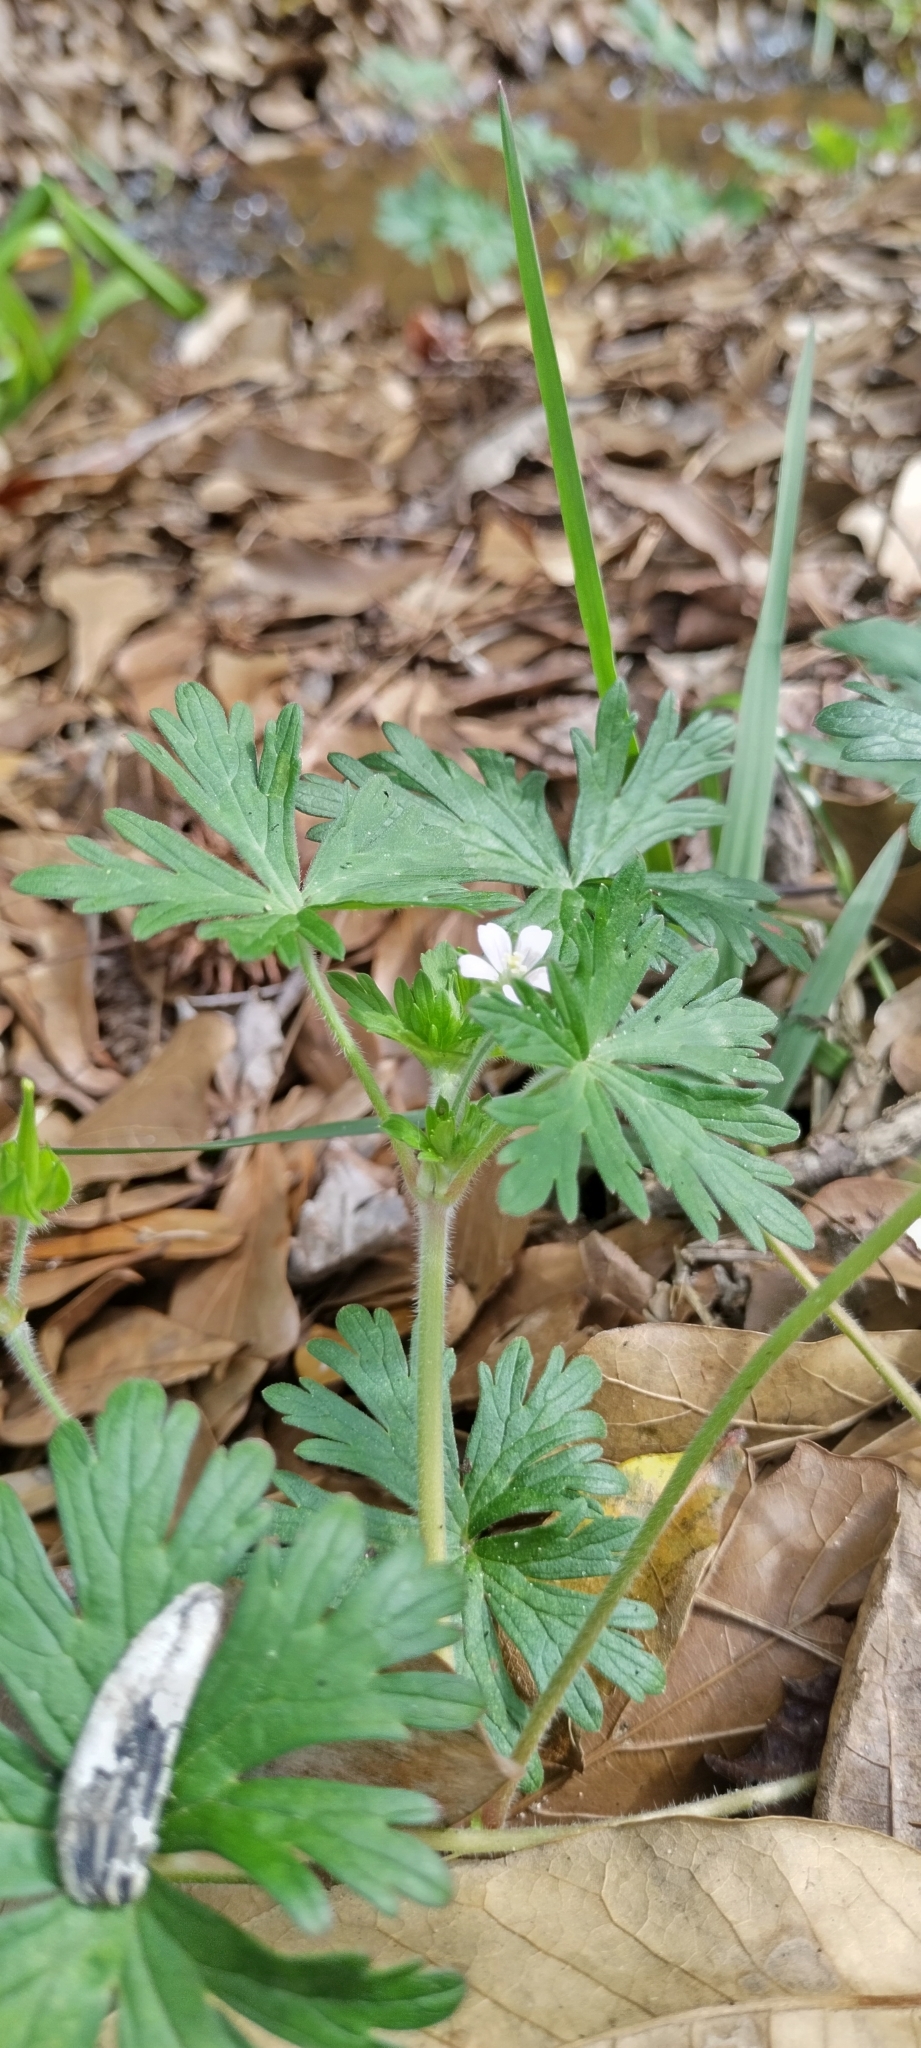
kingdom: Plantae
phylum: Tracheophyta
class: Magnoliopsida
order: Geraniales
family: Geraniaceae
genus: Geranium
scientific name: Geranium carolinianum
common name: Carolina crane's-bill
